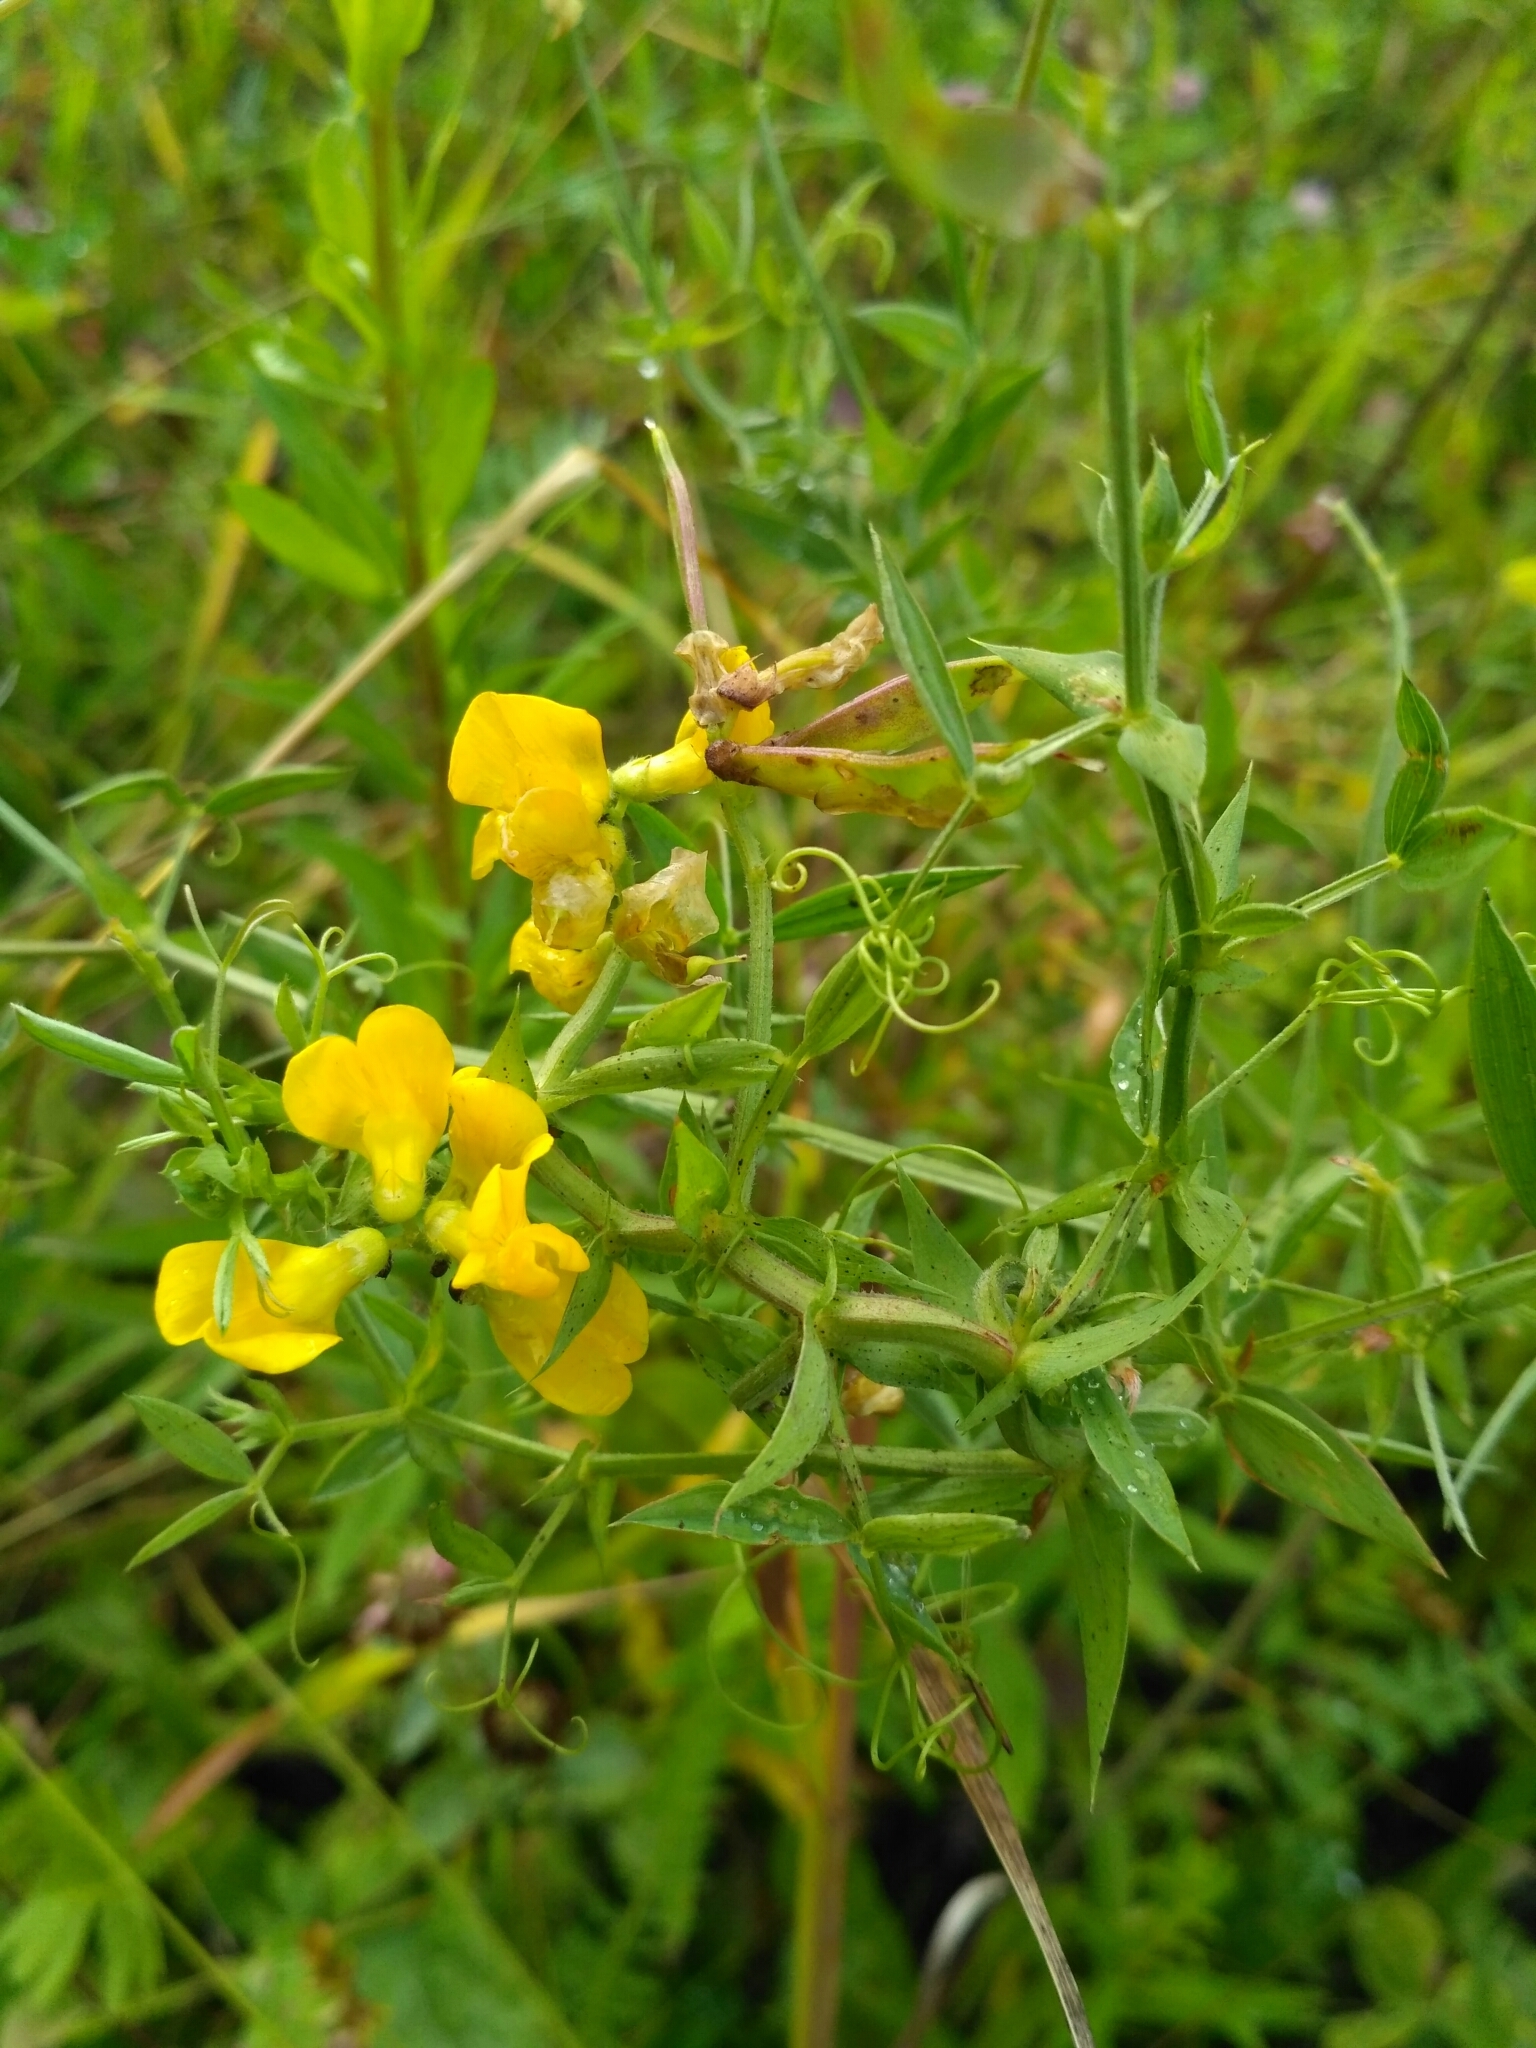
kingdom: Plantae
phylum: Tracheophyta
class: Magnoliopsida
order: Fabales
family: Fabaceae
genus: Lathyrus
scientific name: Lathyrus pratensis
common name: Meadow vetchling
